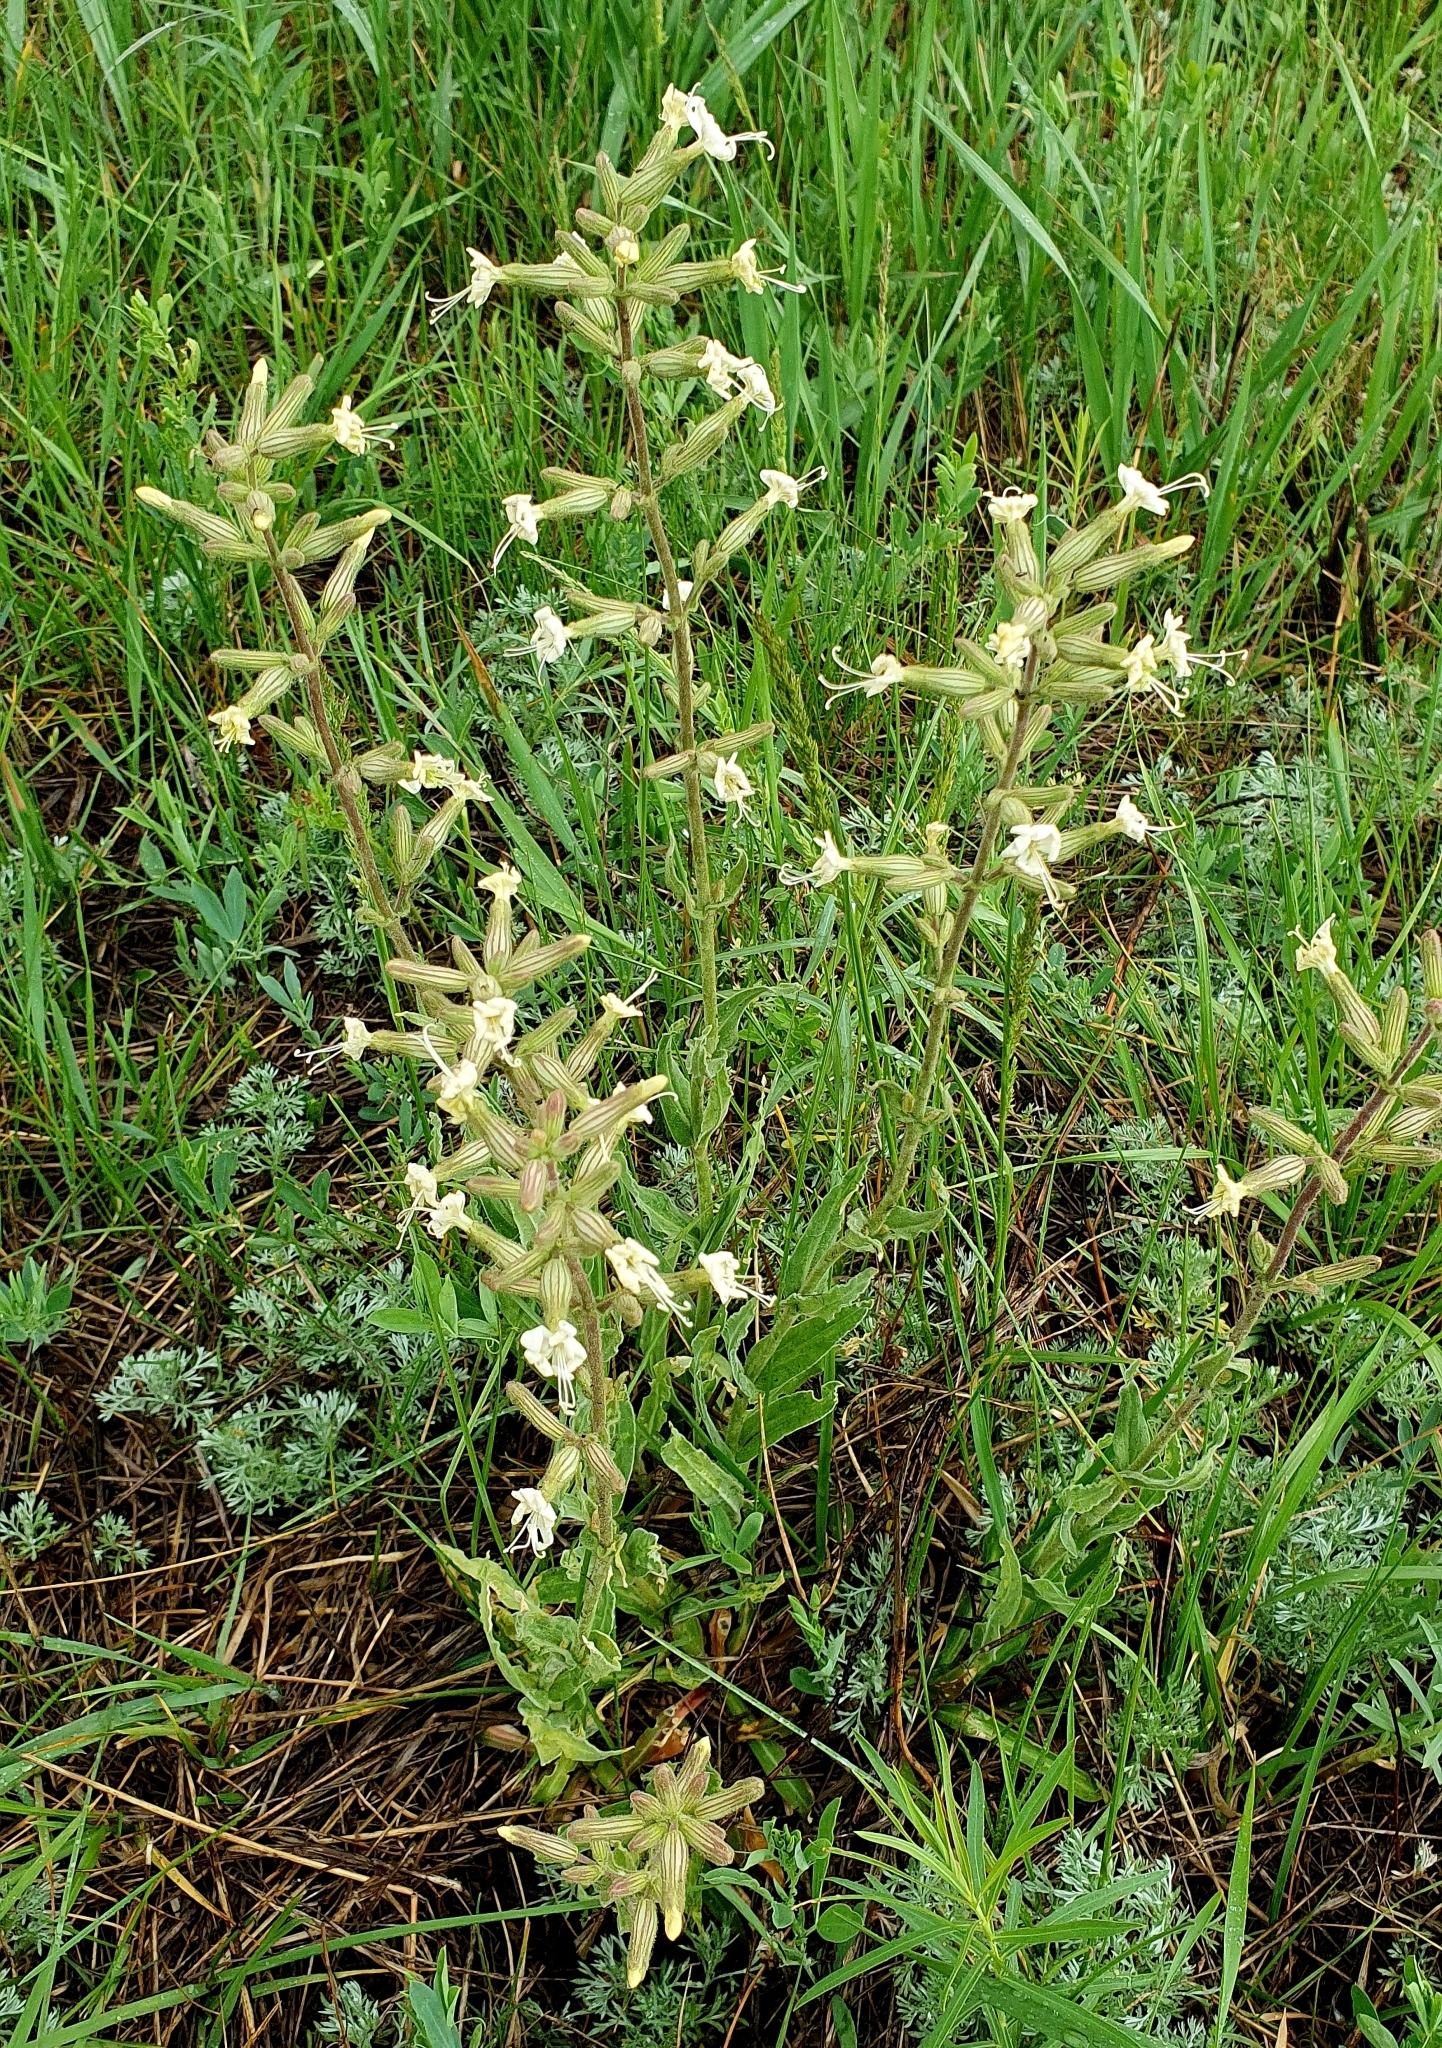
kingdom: Plantae
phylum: Tracheophyta
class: Magnoliopsida
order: Caryophyllales
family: Caryophyllaceae
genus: Silene
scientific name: Silene viscosa
